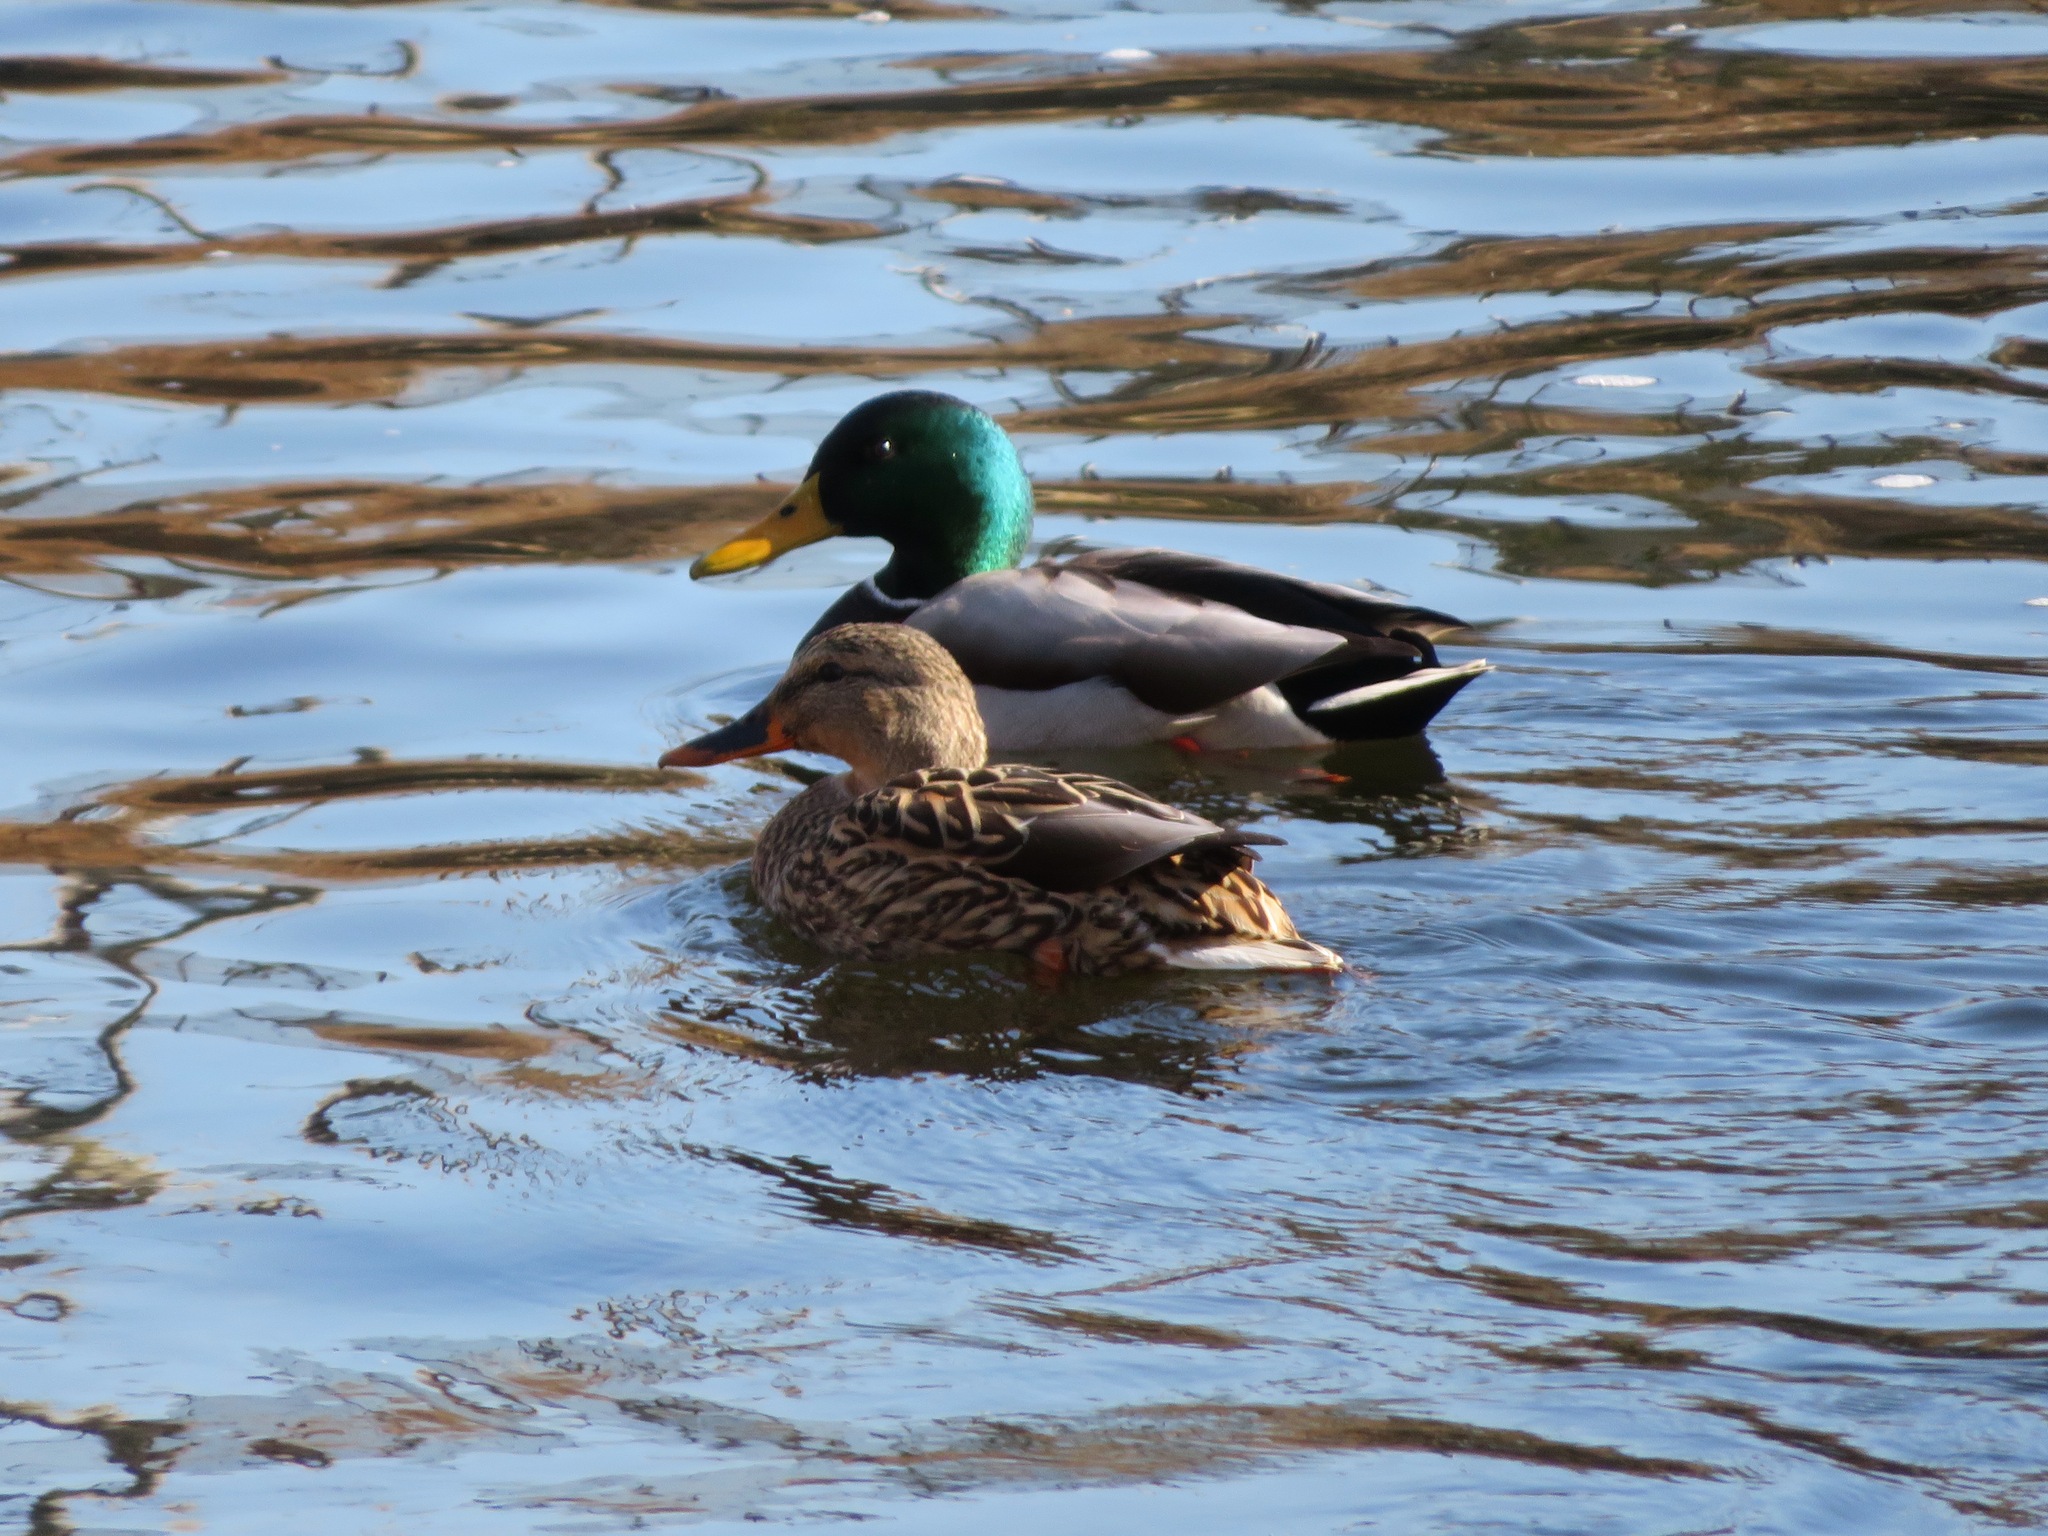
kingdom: Animalia
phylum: Chordata
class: Aves
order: Anseriformes
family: Anatidae
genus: Anas
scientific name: Anas platyrhynchos
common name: Mallard
